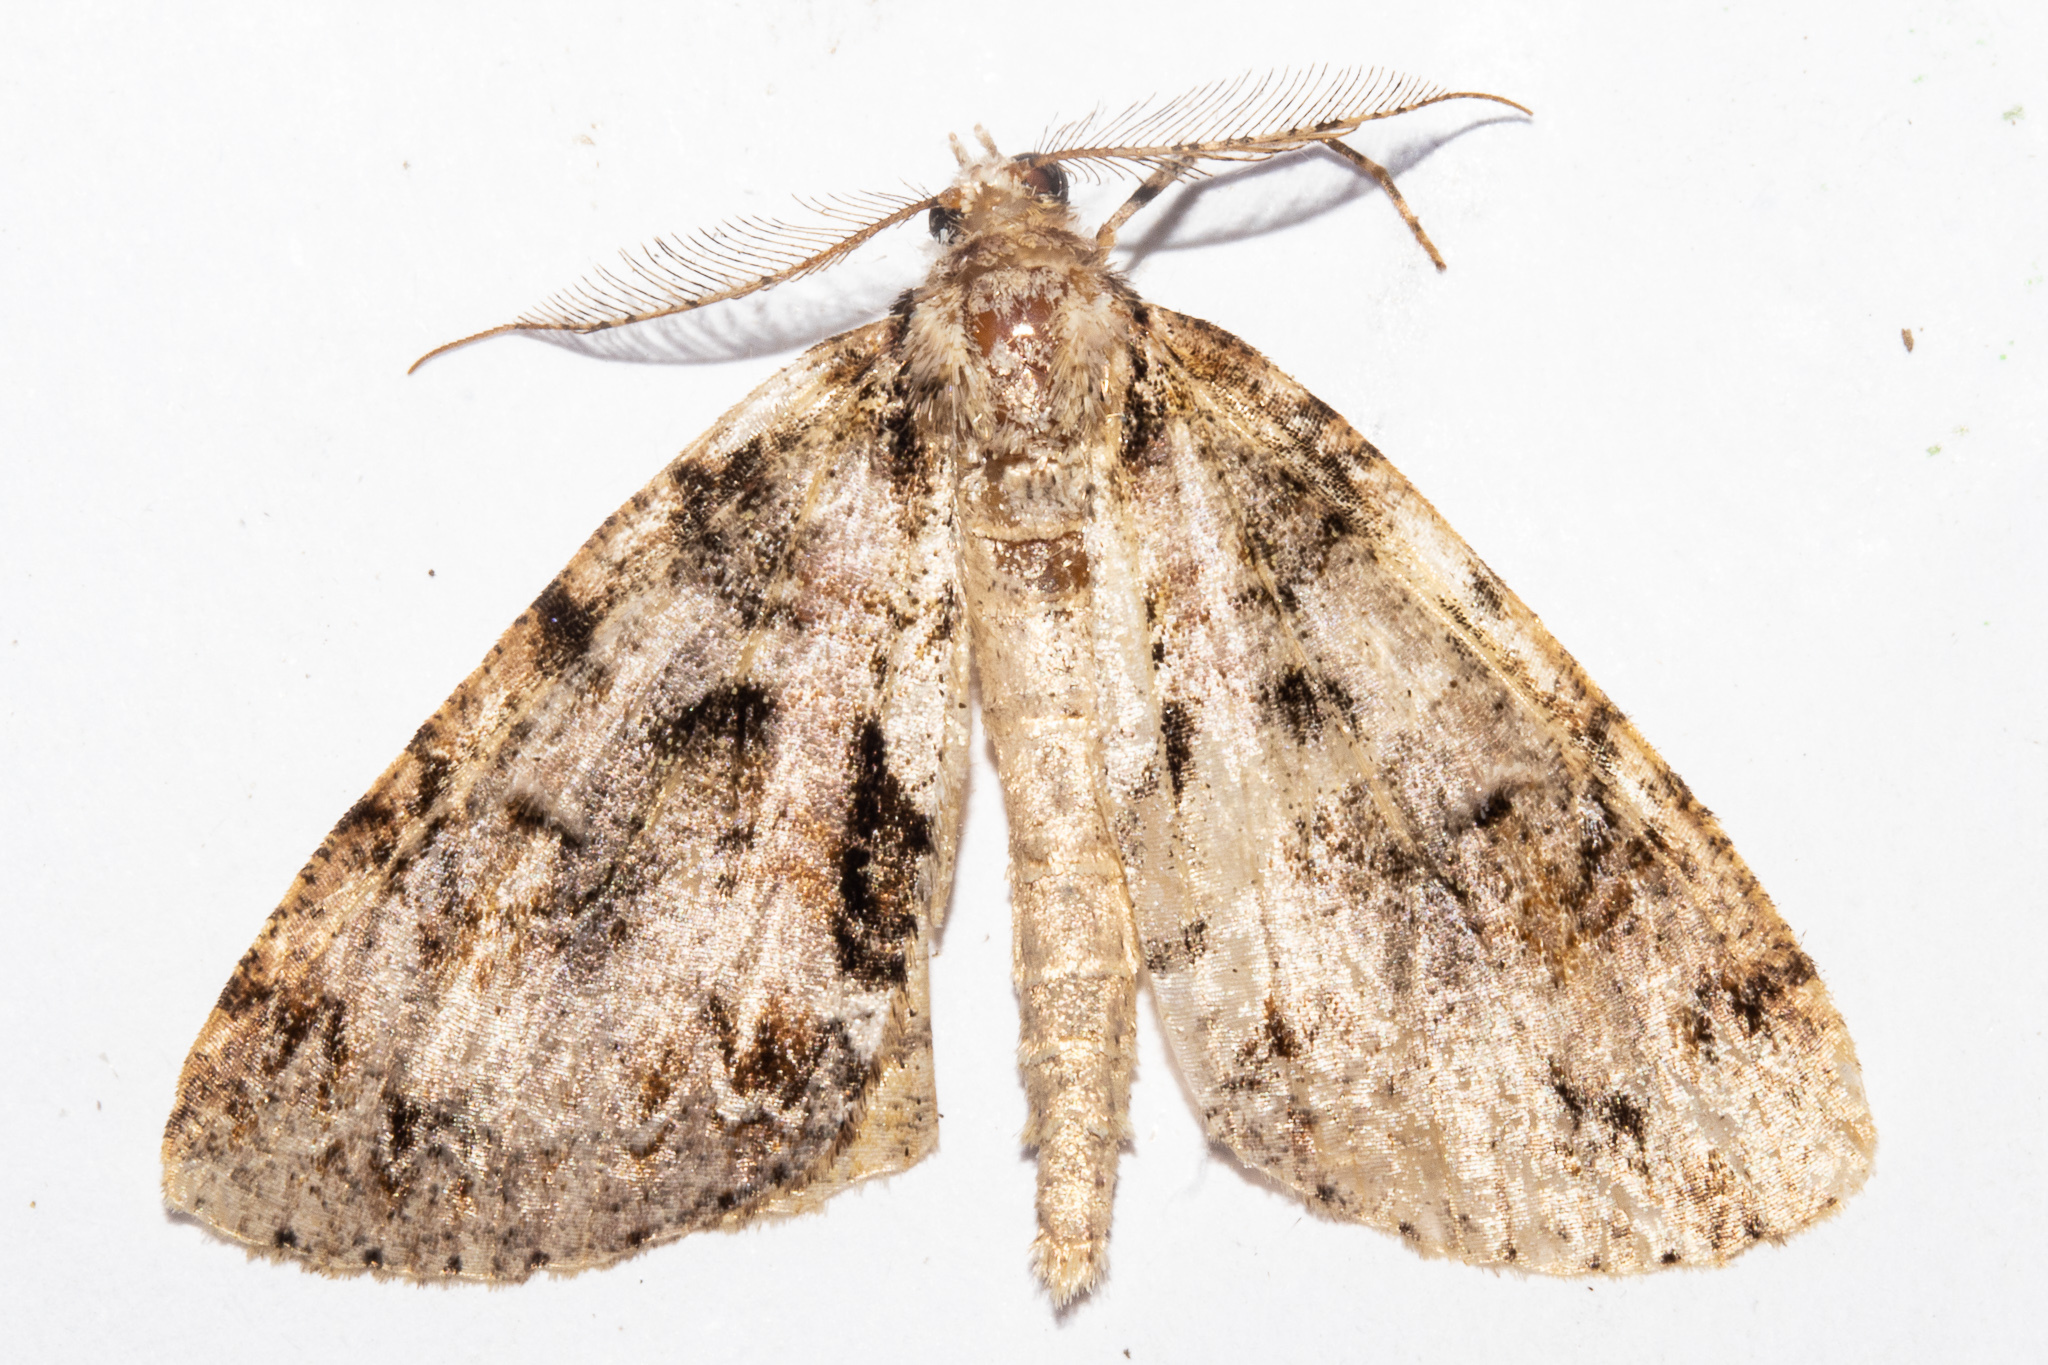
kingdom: Animalia
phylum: Arthropoda
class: Insecta
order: Lepidoptera
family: Geometridae
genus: Pseudocoremia
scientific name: Pseudocoremia suavis
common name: Common forest looper
